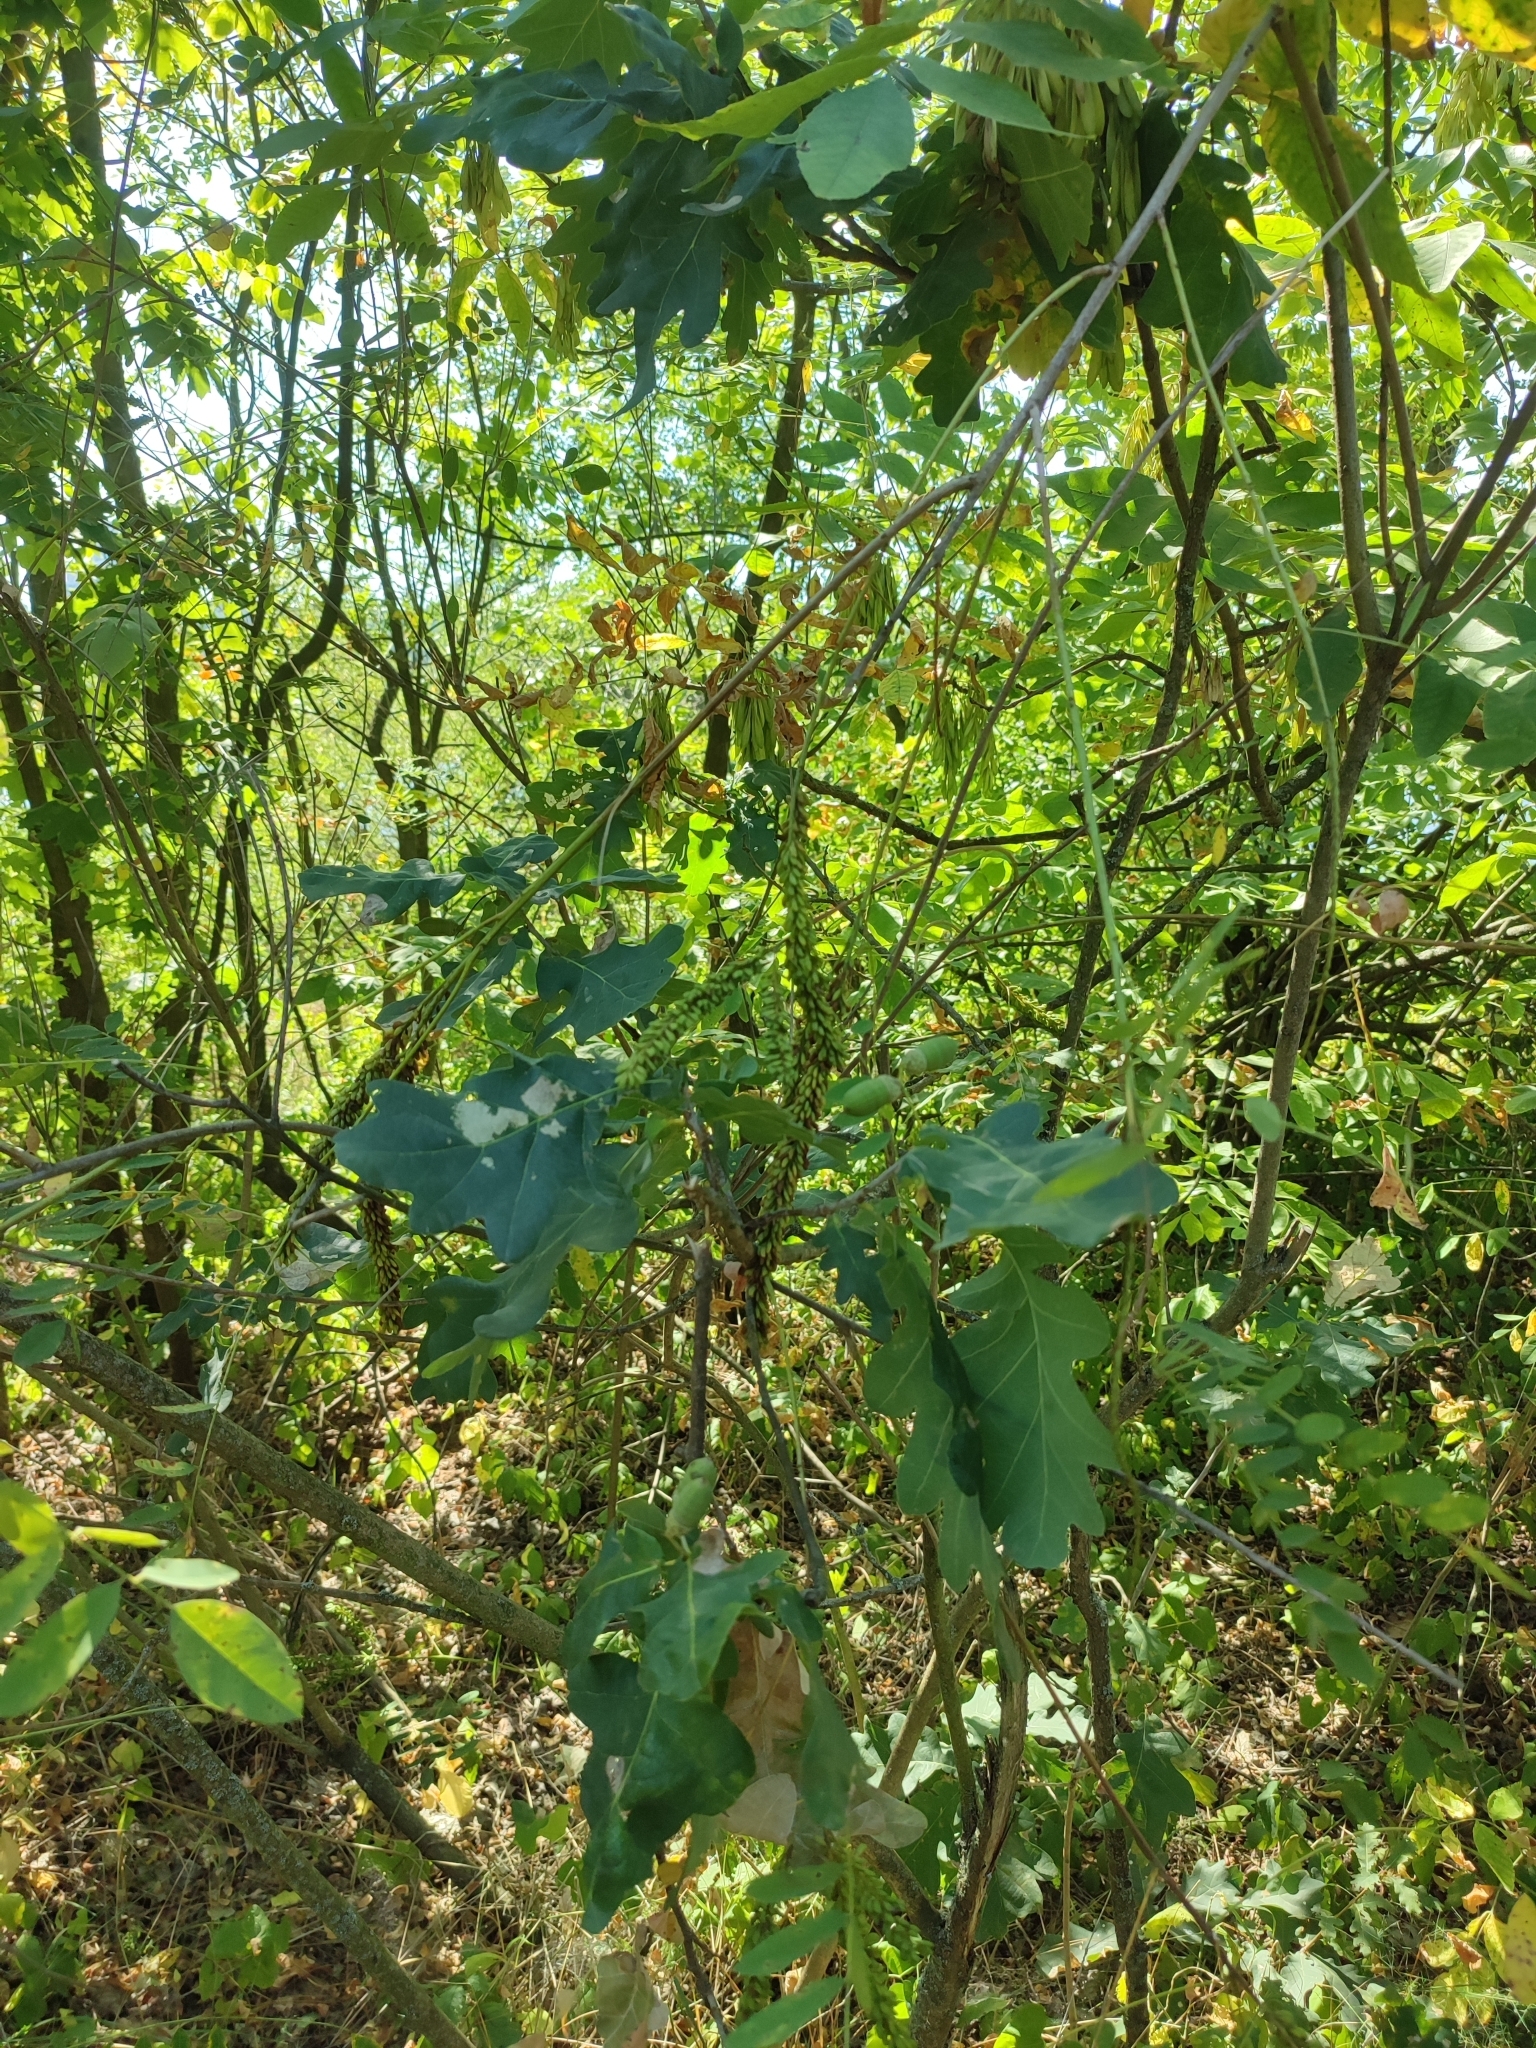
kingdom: Plantae
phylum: Tracheophyta
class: Magnoliopsida
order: Fagales
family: Fagaceae
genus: Quercus
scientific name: Quercus robur
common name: Pedunculate oak
